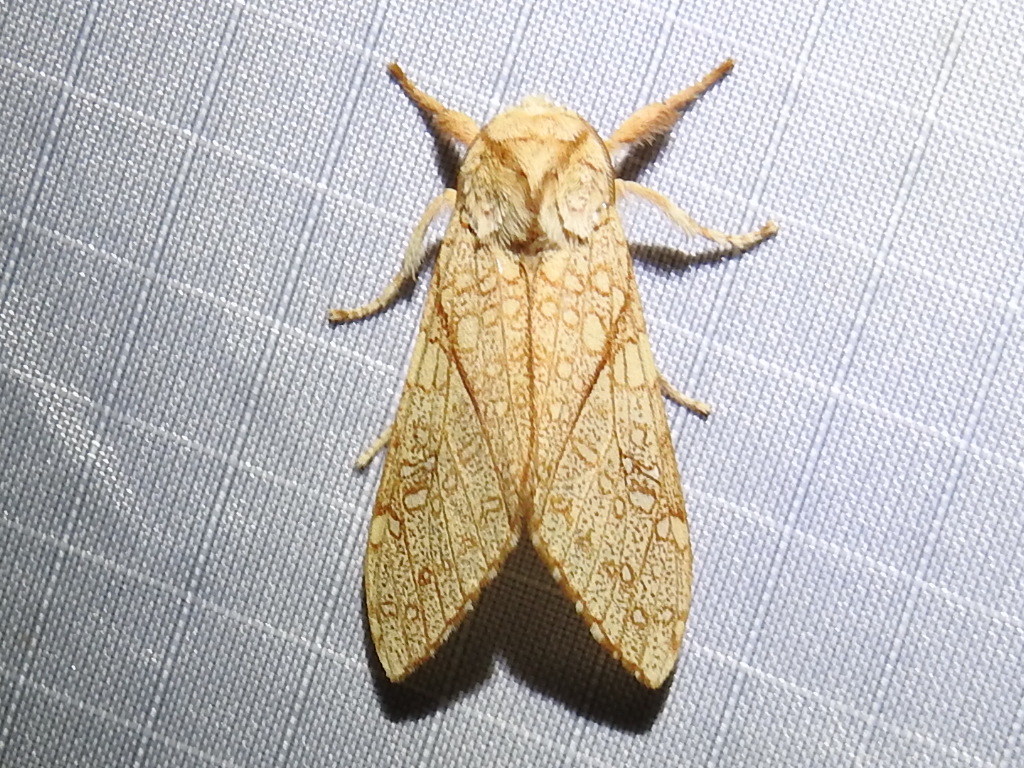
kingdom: Animalia
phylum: Arthropoda
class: Insecta
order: Lepidoptera
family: Erebidae
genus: Lophocampa
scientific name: Lophocampa mixta
